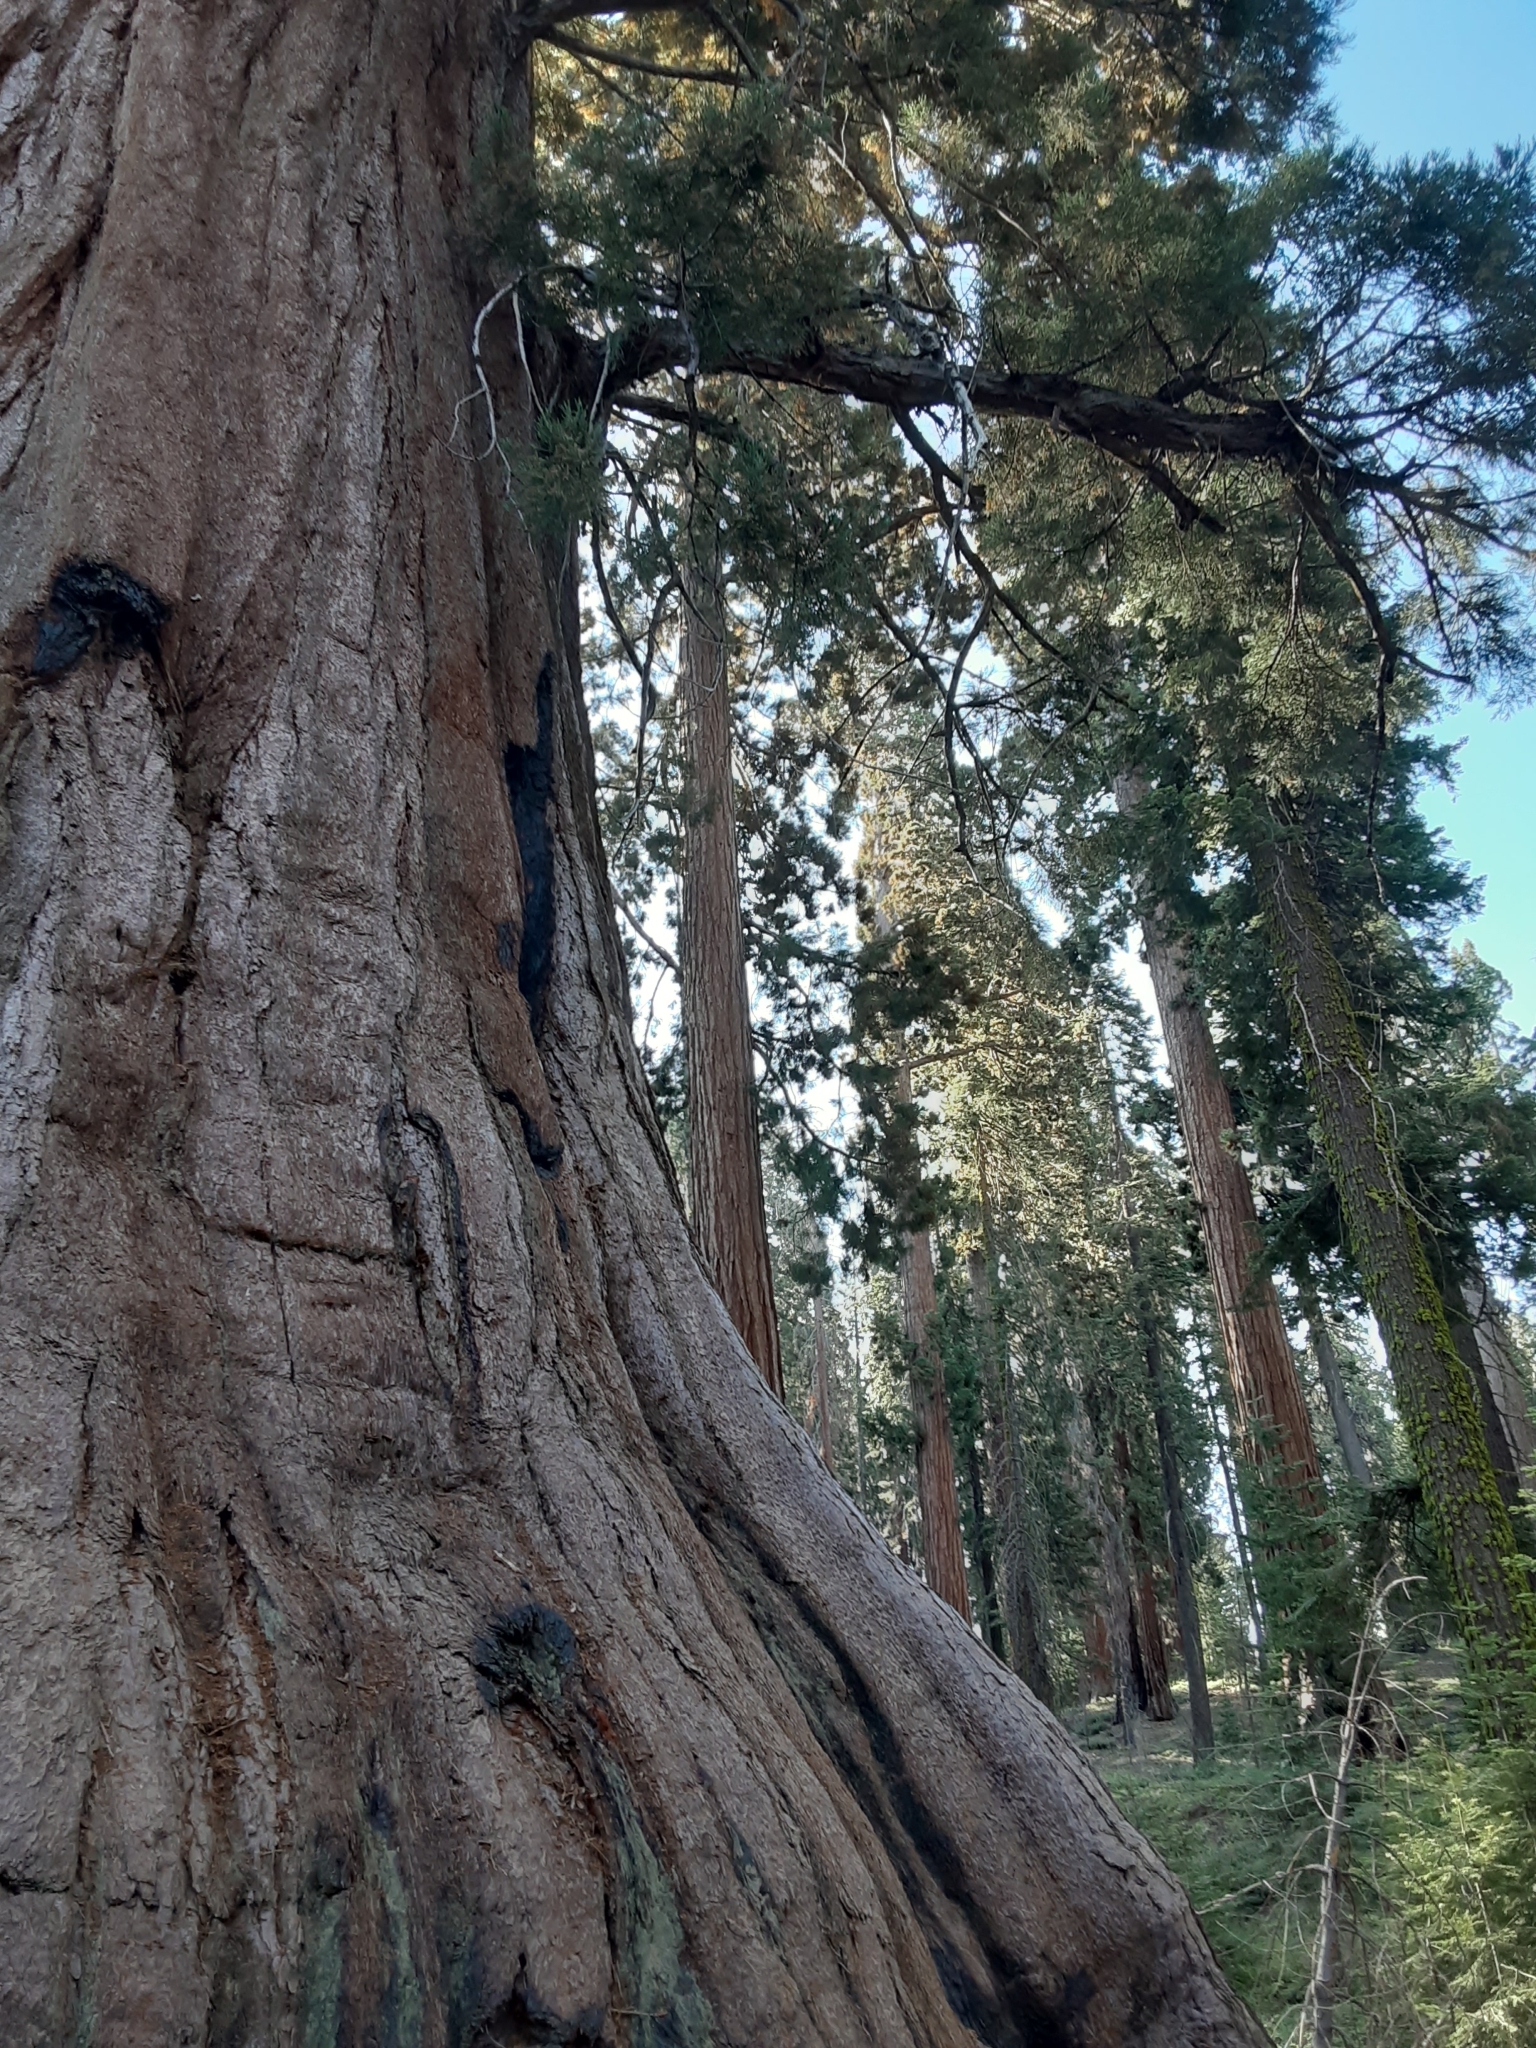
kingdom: Plantae
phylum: Tracheophyta
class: Pinopsida
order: Pinales
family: Cupressaceae
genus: Sequoiadendron
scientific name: Sequoiadendron giganteum
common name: Wellingtonia
